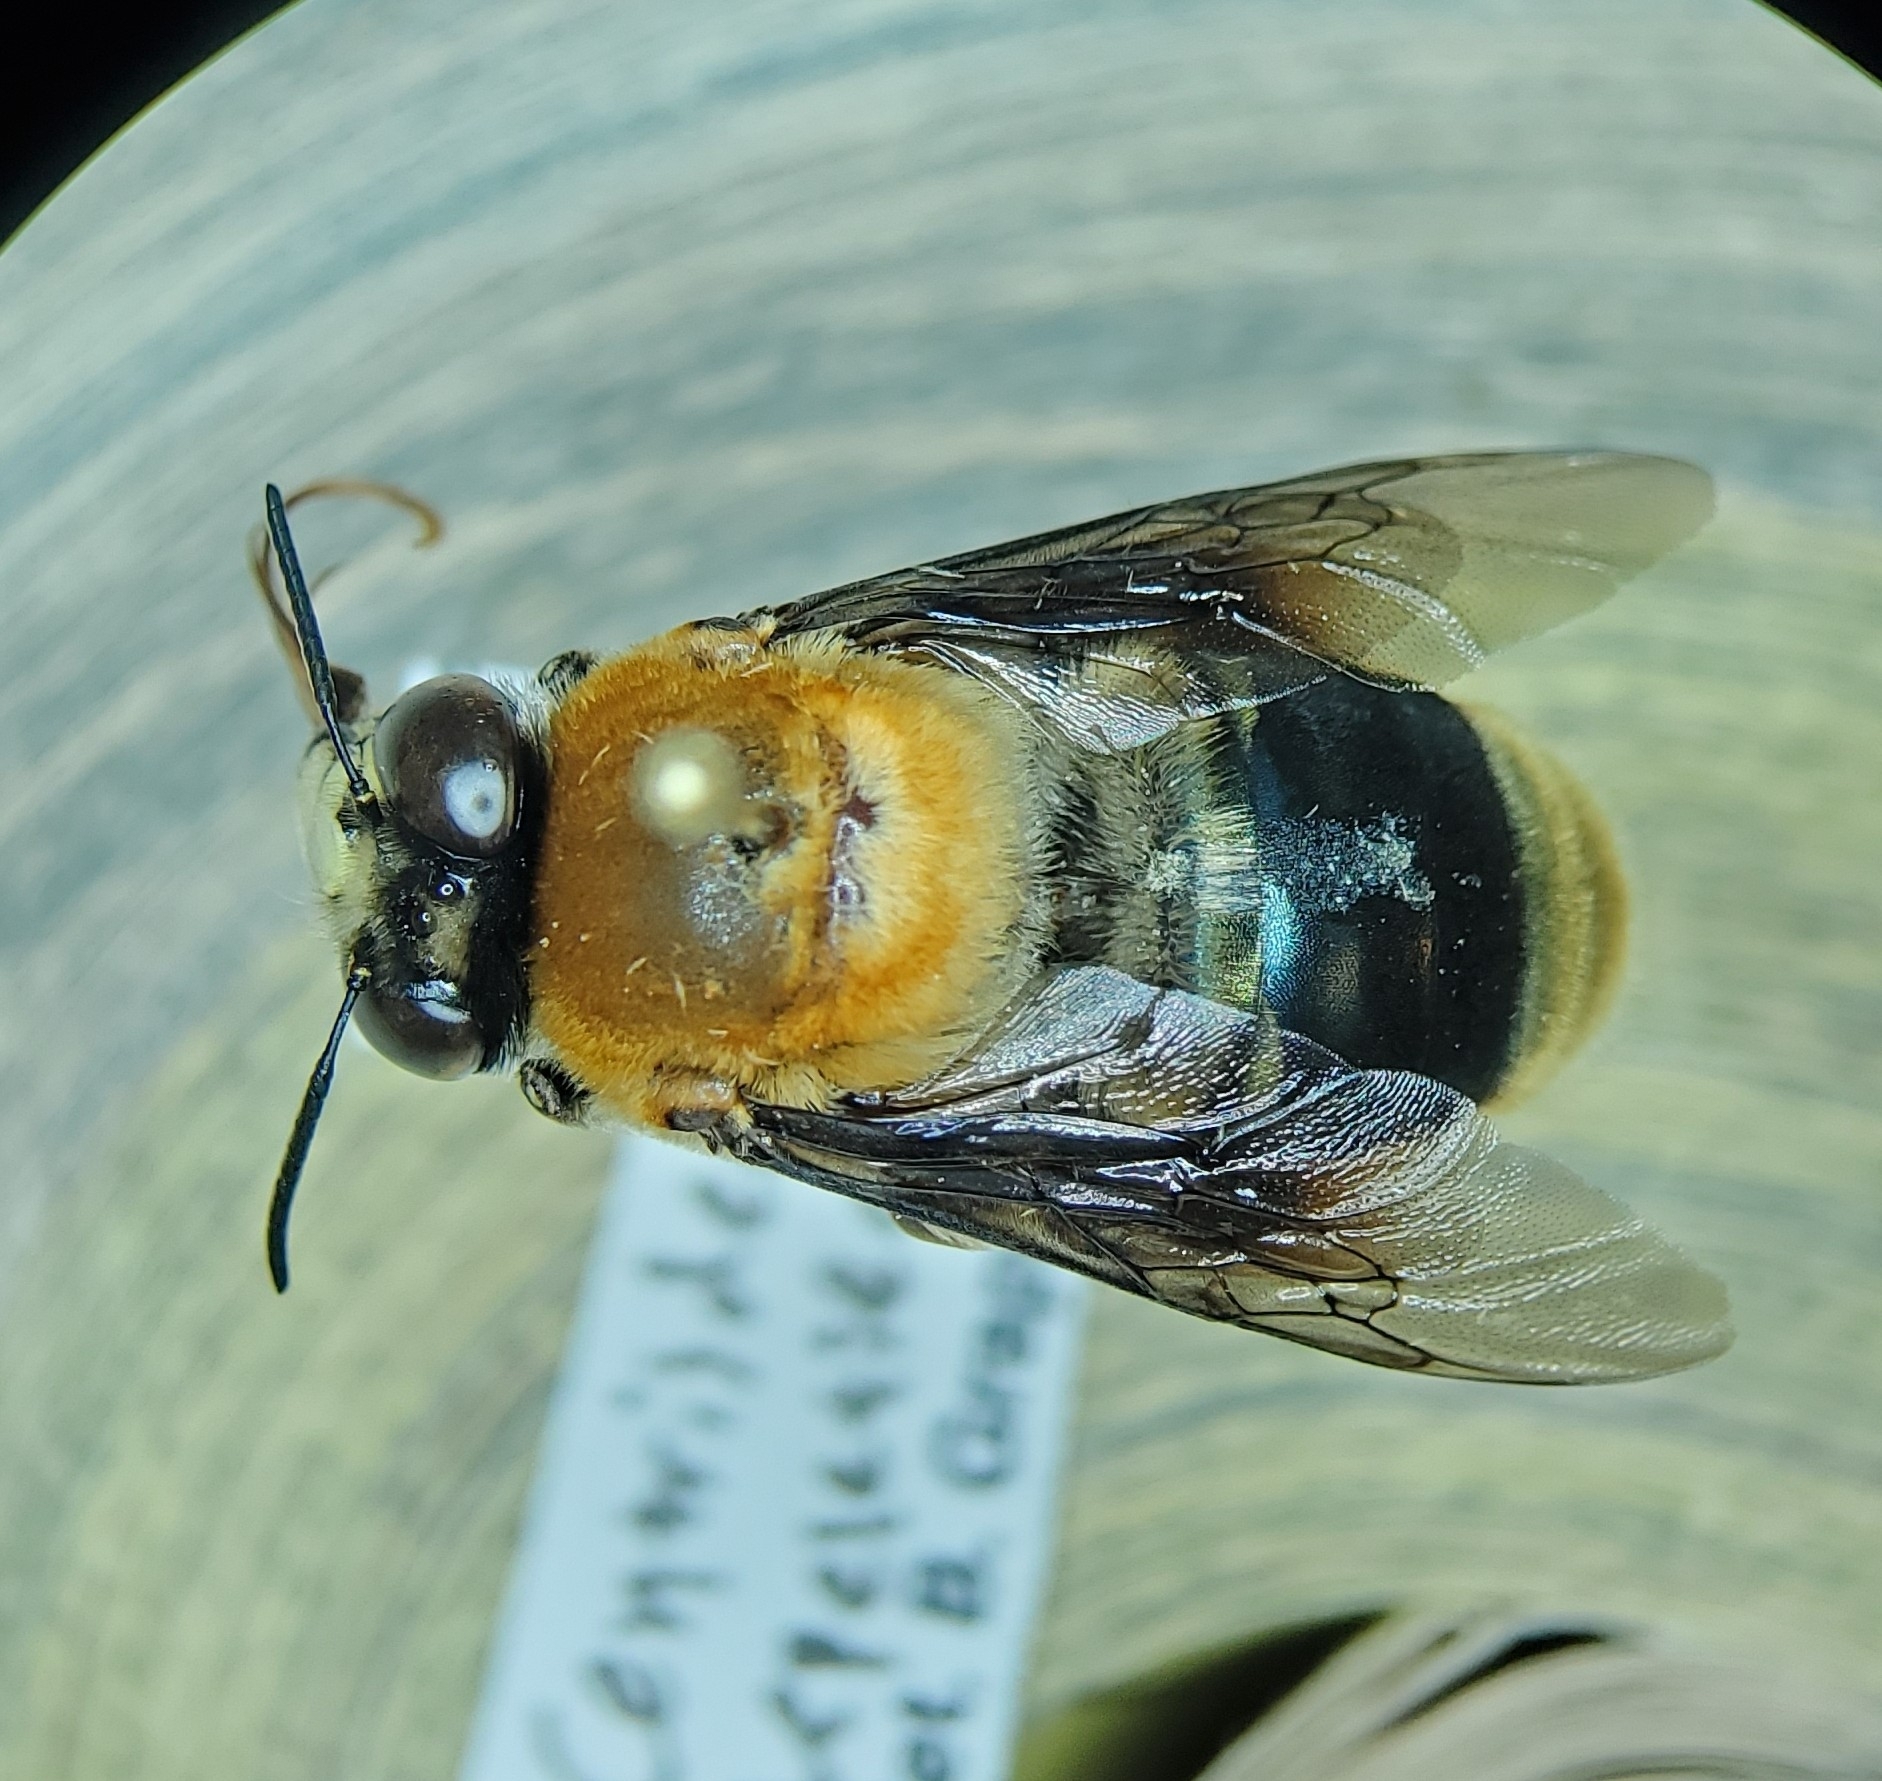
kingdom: Animalia
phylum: Arthropoda
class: Insecta
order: Hymenoptera
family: Apidae
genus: Centris
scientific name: Centris decolorata
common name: Crazy beach bee
